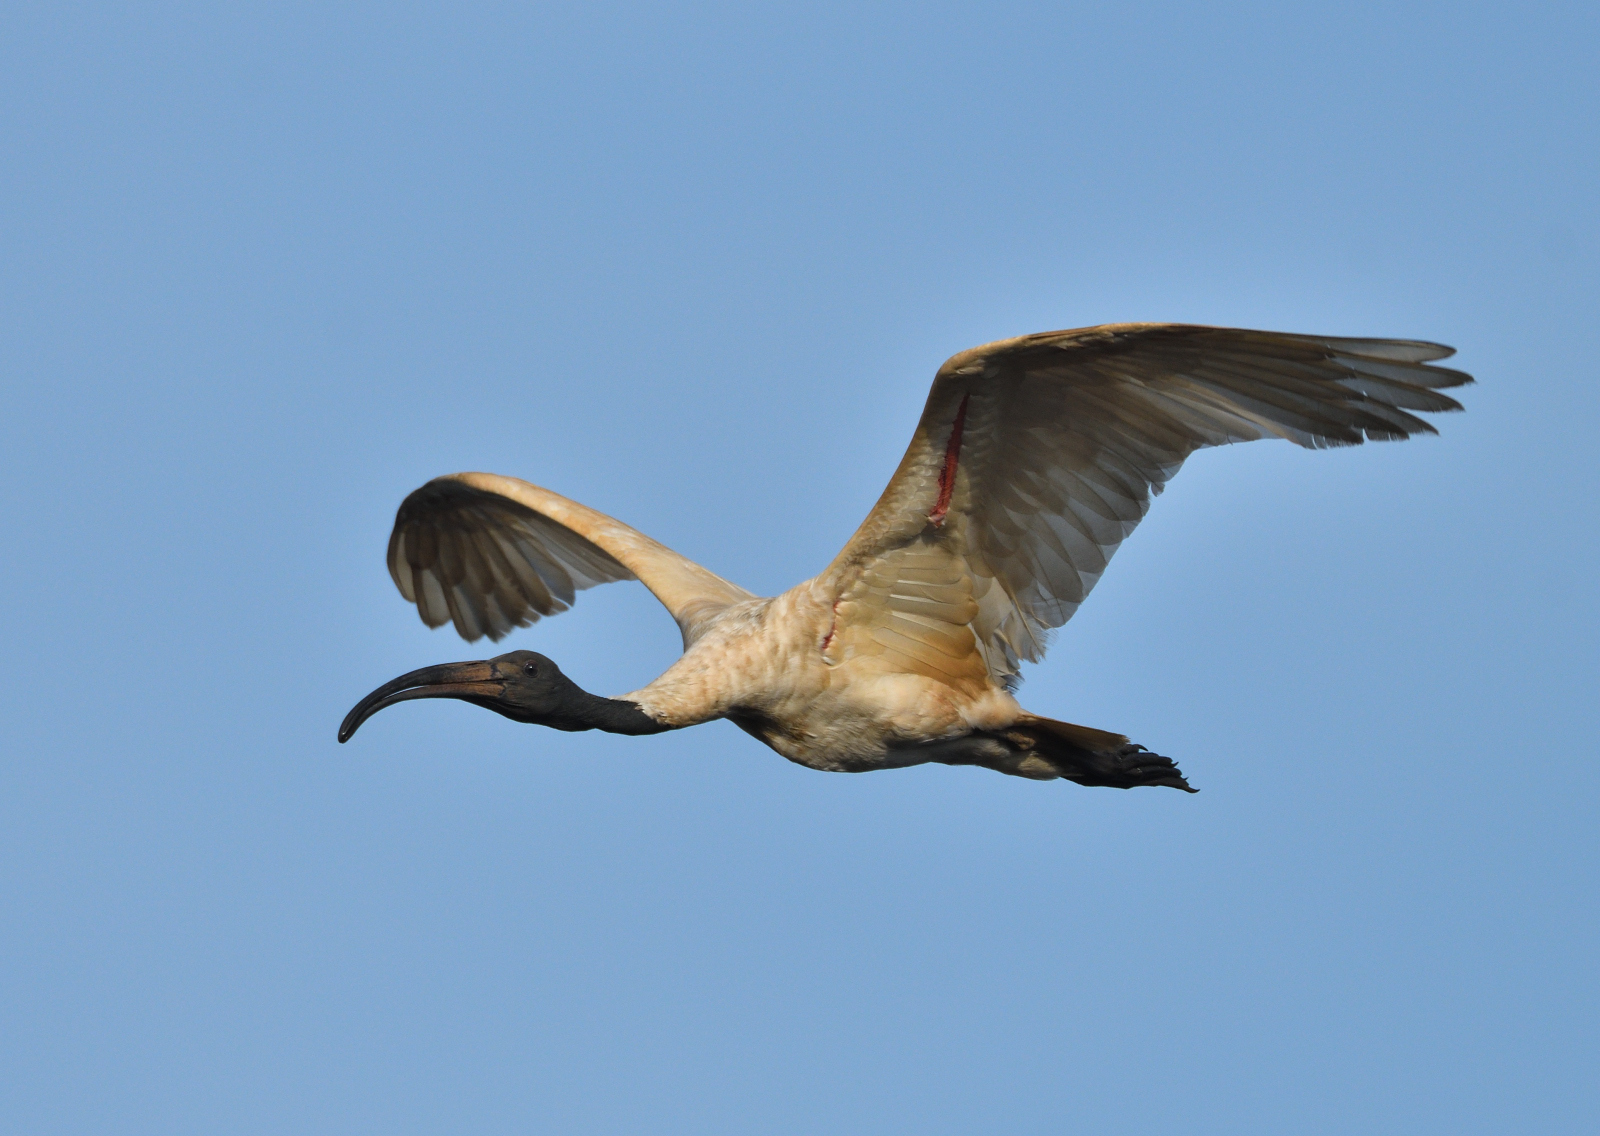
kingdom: Animalia
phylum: Chordata
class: Aves
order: Pelecaniformes
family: Threskiornithidae
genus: Threskiornis
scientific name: Threskiornis melanocephalus
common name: Black-headed ibis
